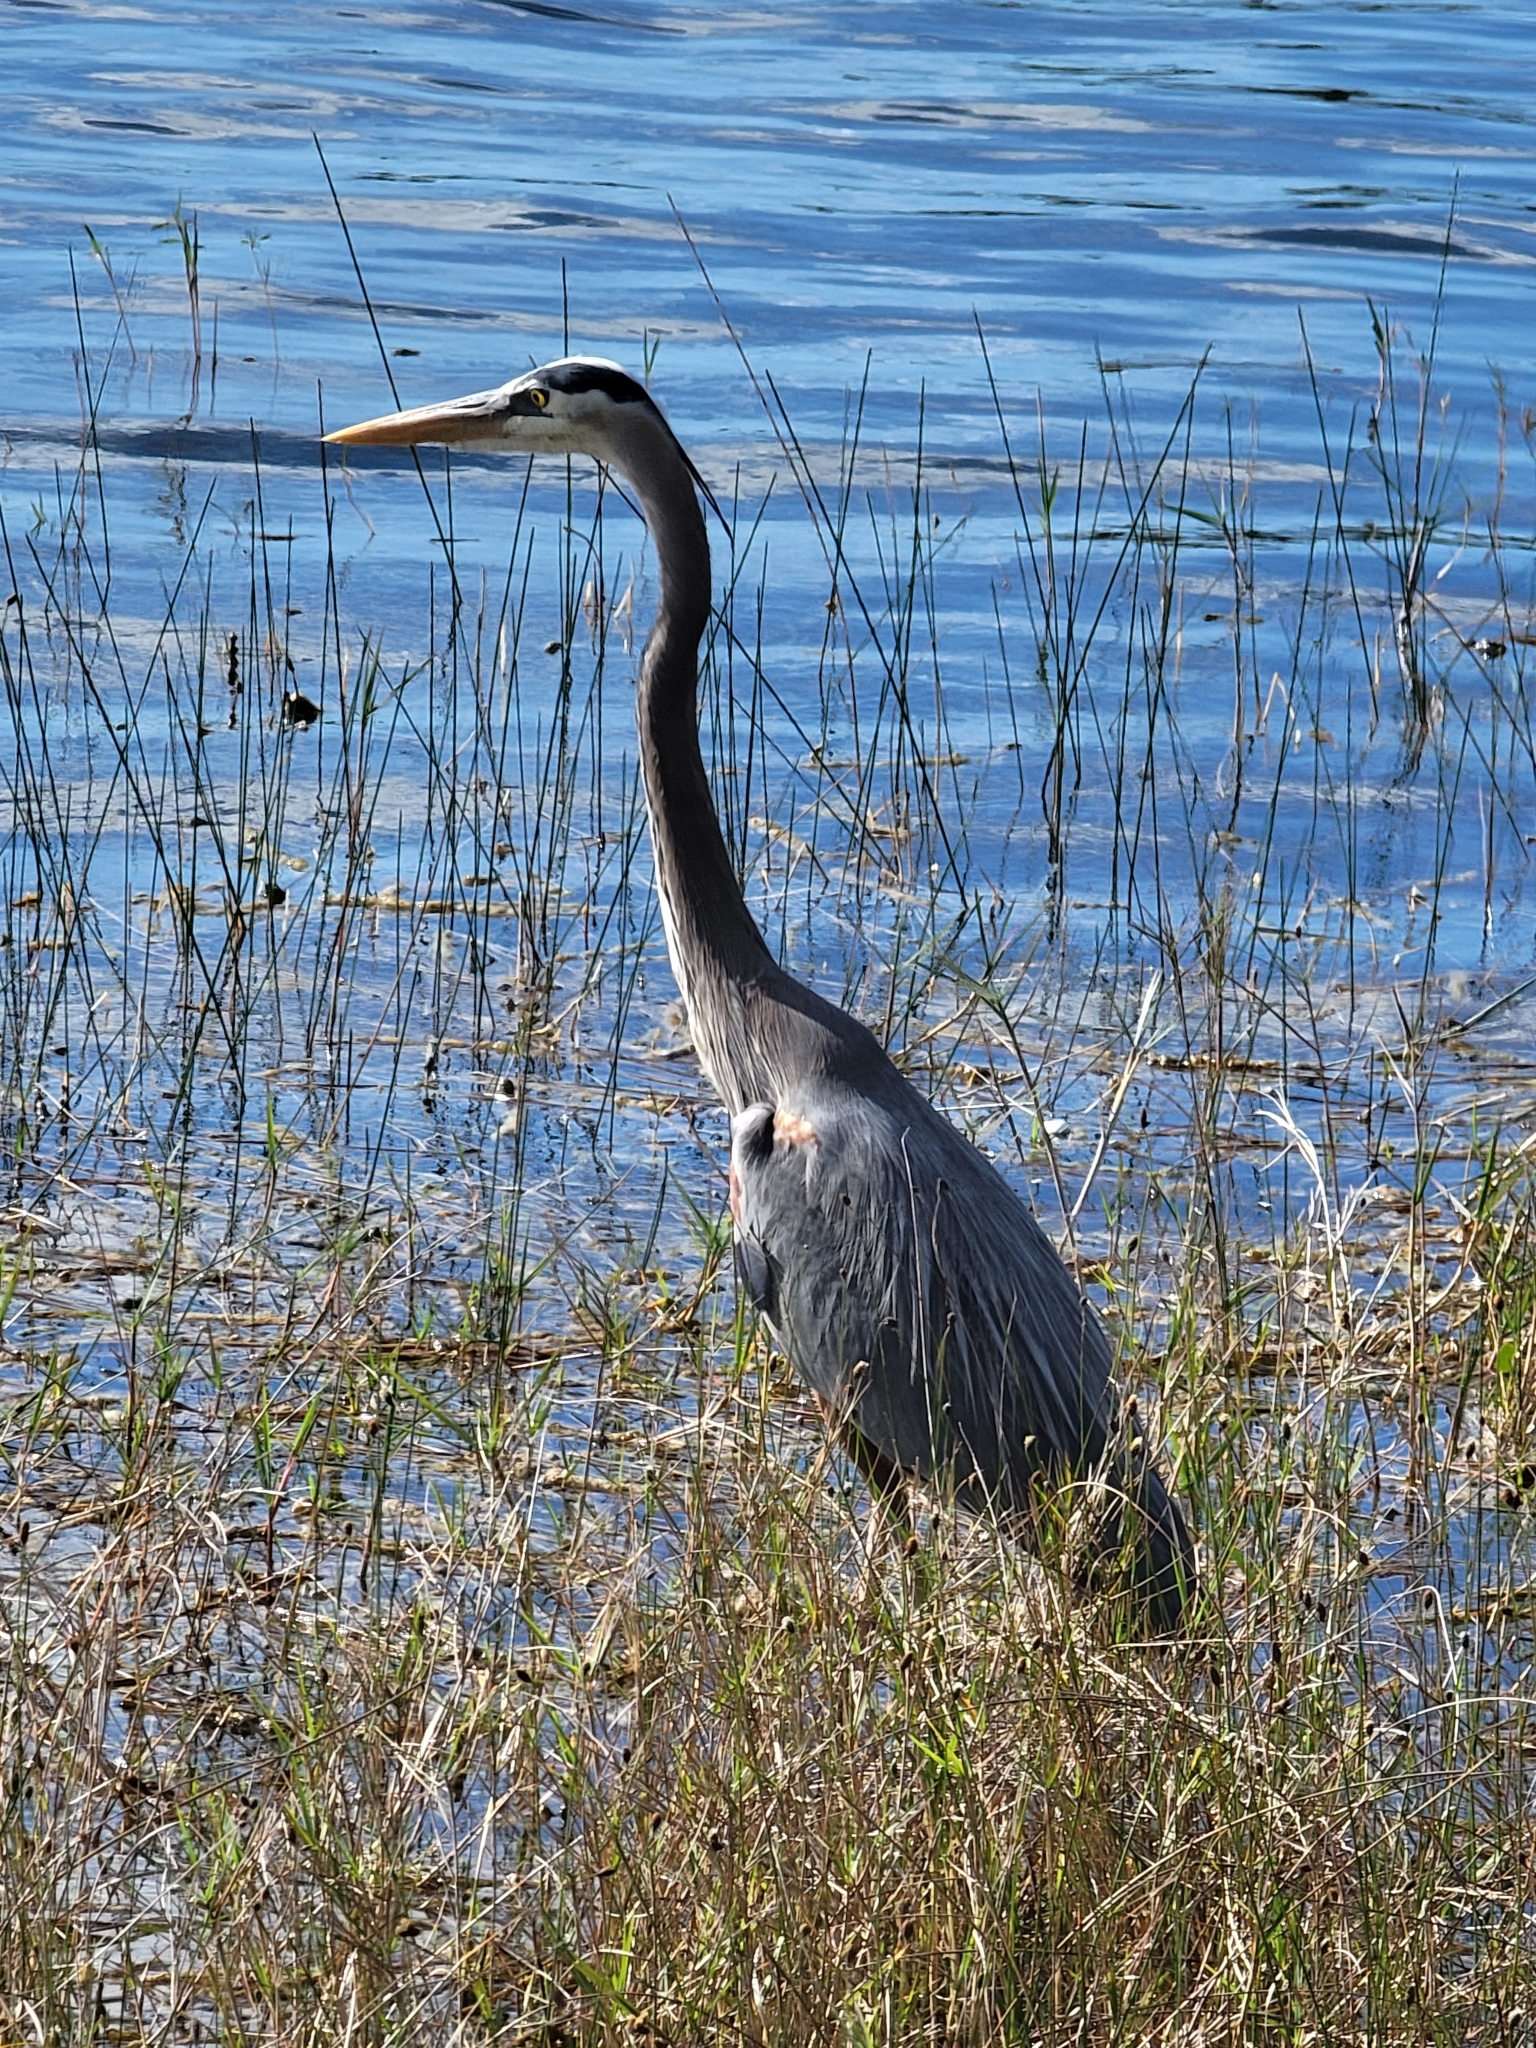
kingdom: Animalia
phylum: Chordata
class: Aves
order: Pelecaniformes
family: Ardeidae
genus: Ardea
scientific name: Ardea herodias
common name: Great blue heron
